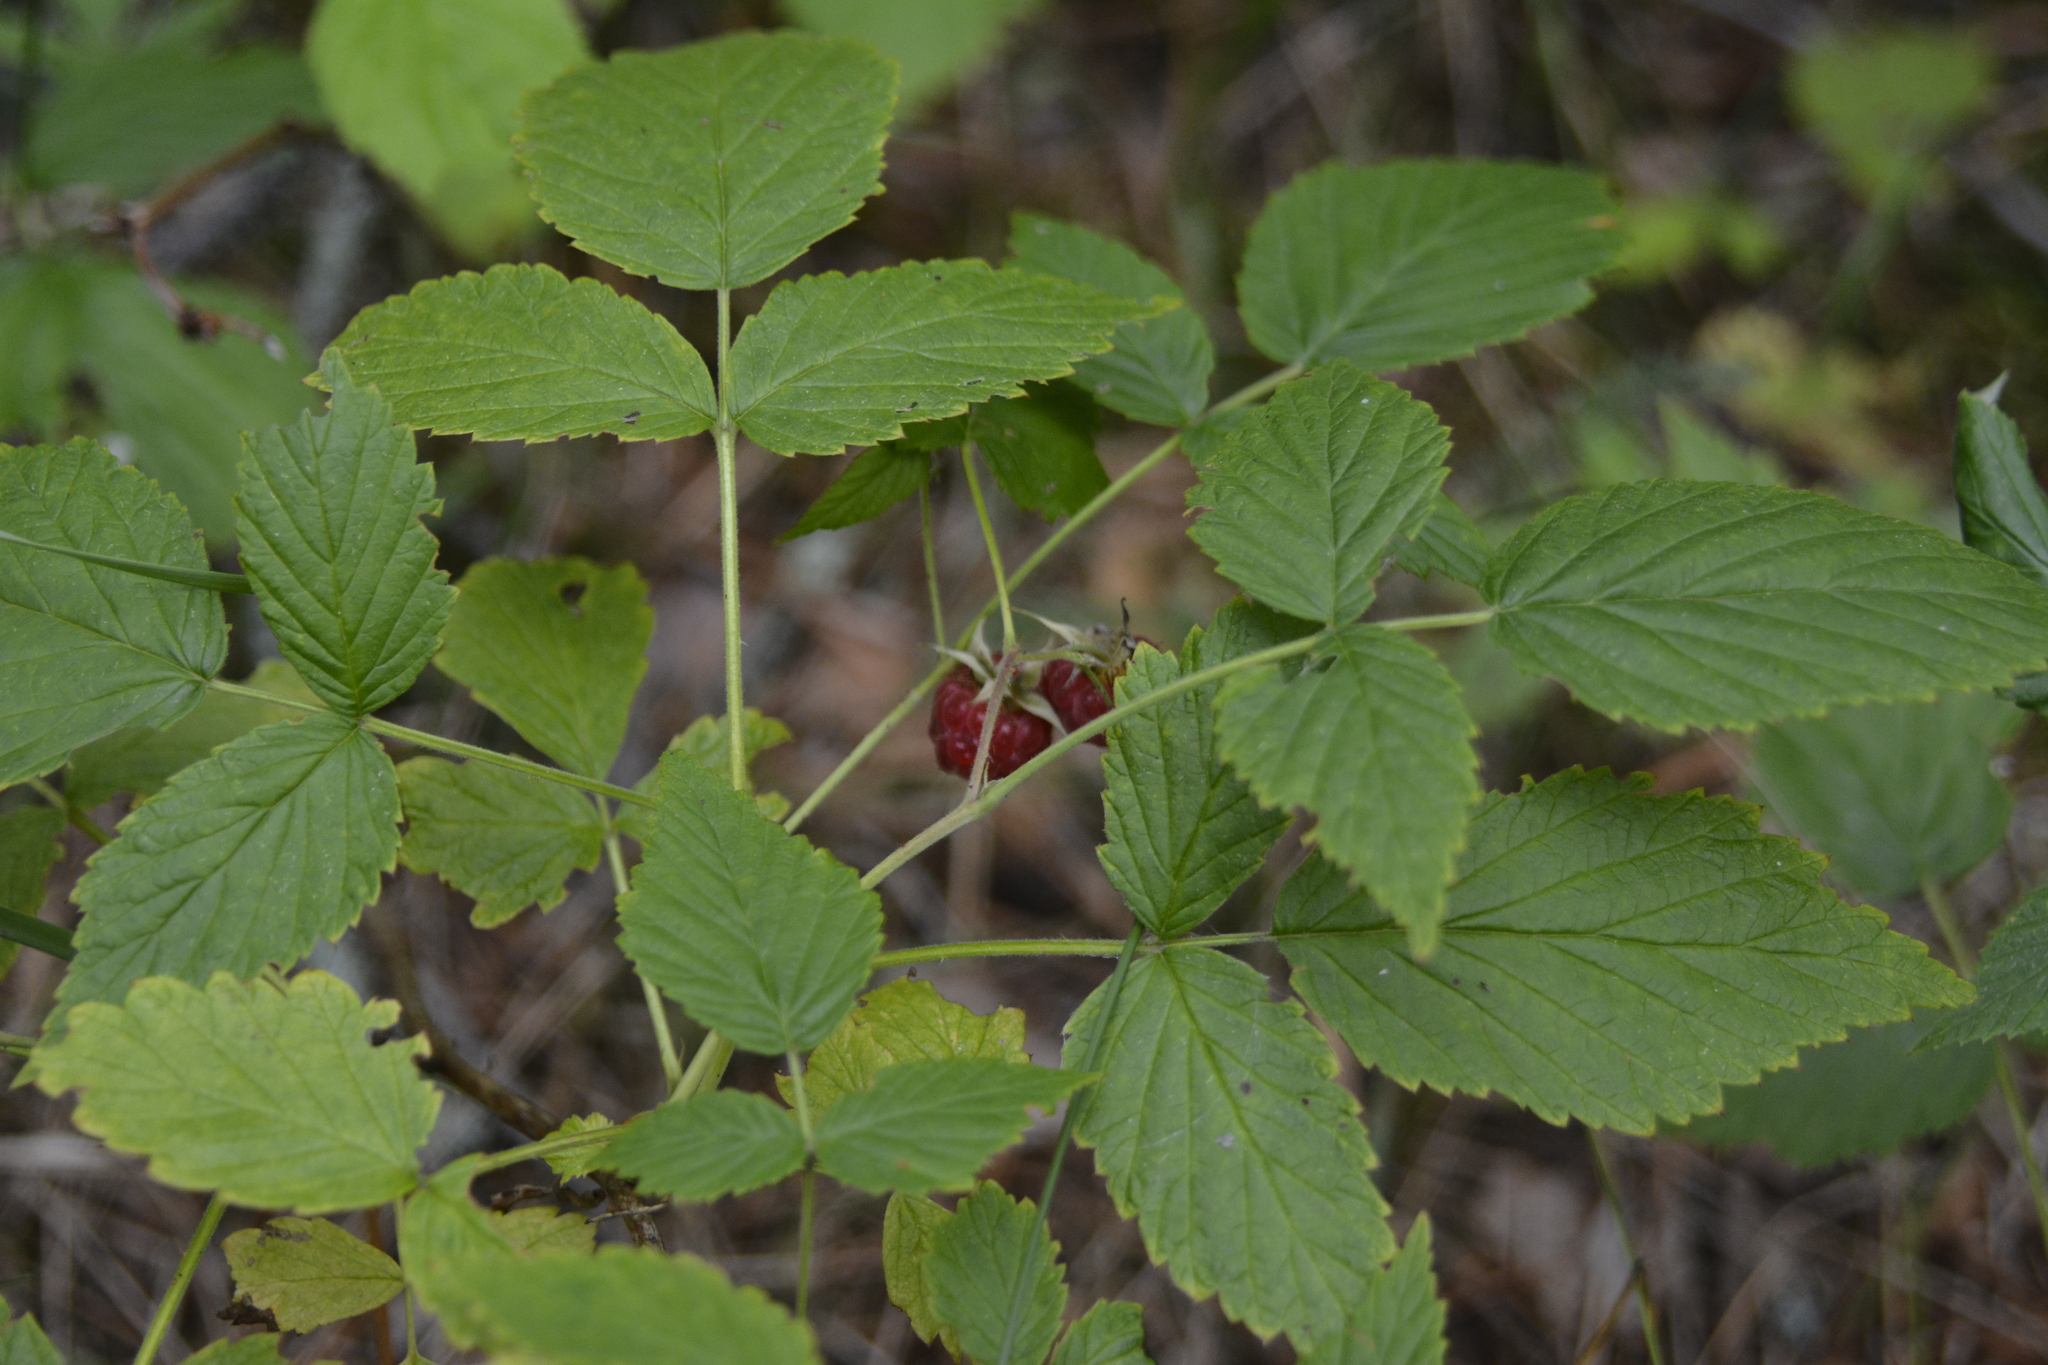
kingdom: Plantae
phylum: Tracheophyta
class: Magnoliopsida
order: Rosales
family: Rosaceae
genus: Rubus
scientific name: Rubus idaeus
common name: Raspberry
